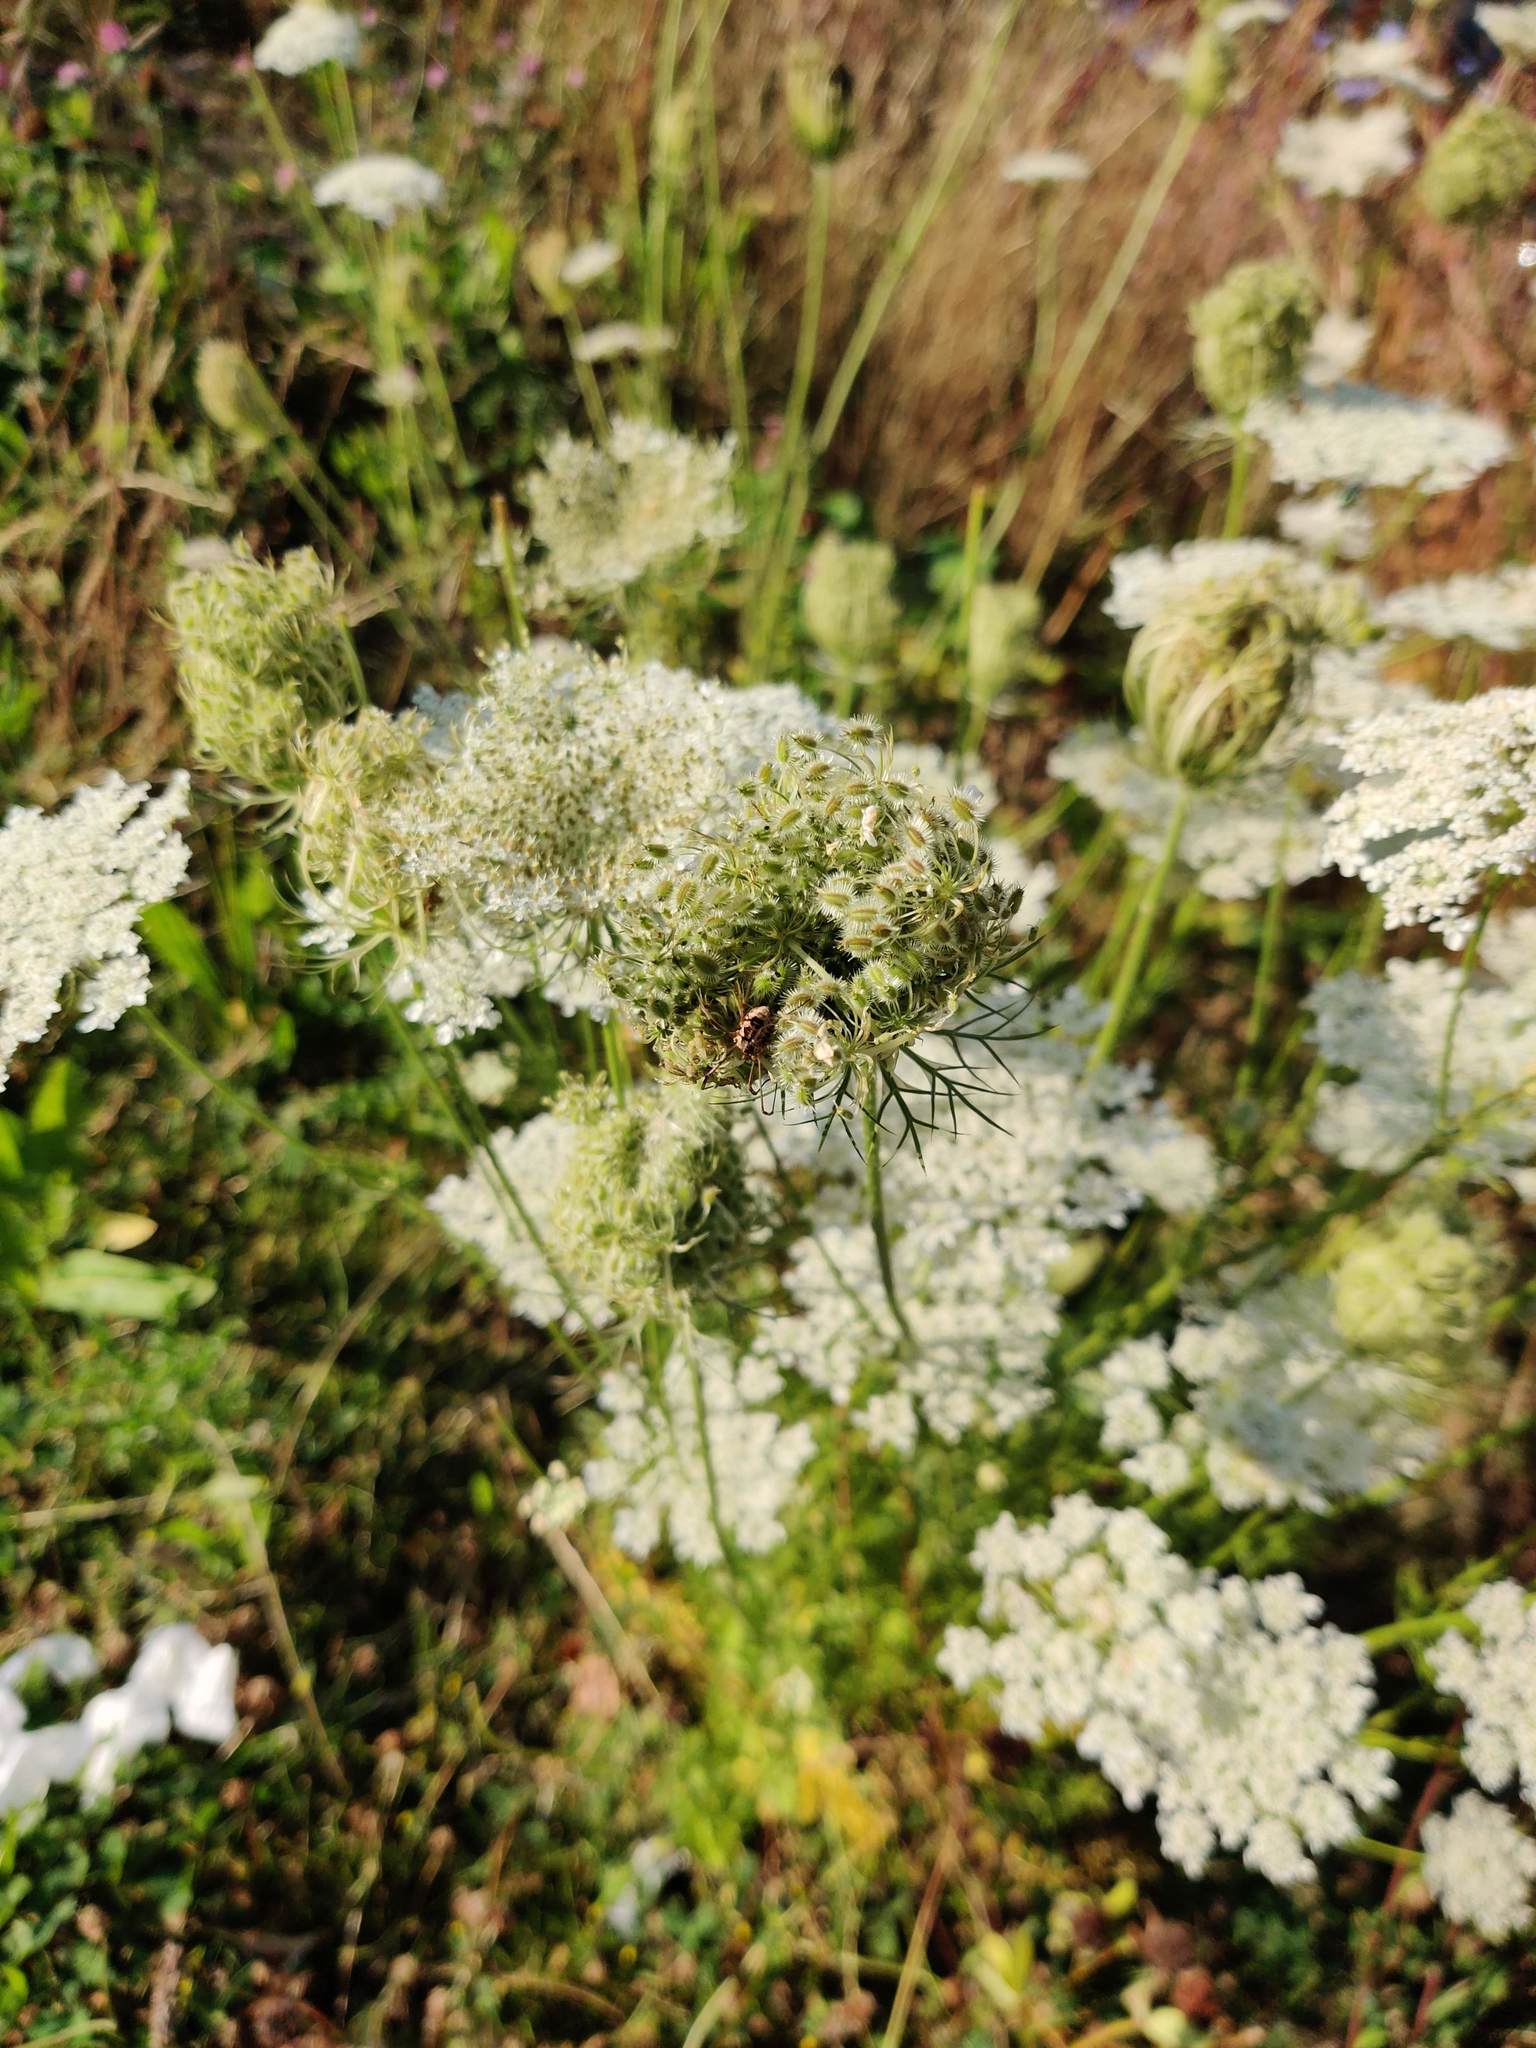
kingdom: Plantae
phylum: Tracheophyta
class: Magnoliopsida
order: Apiales
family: Apiaceae
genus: Daucus
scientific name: Daucus carota
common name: Wild carrot
